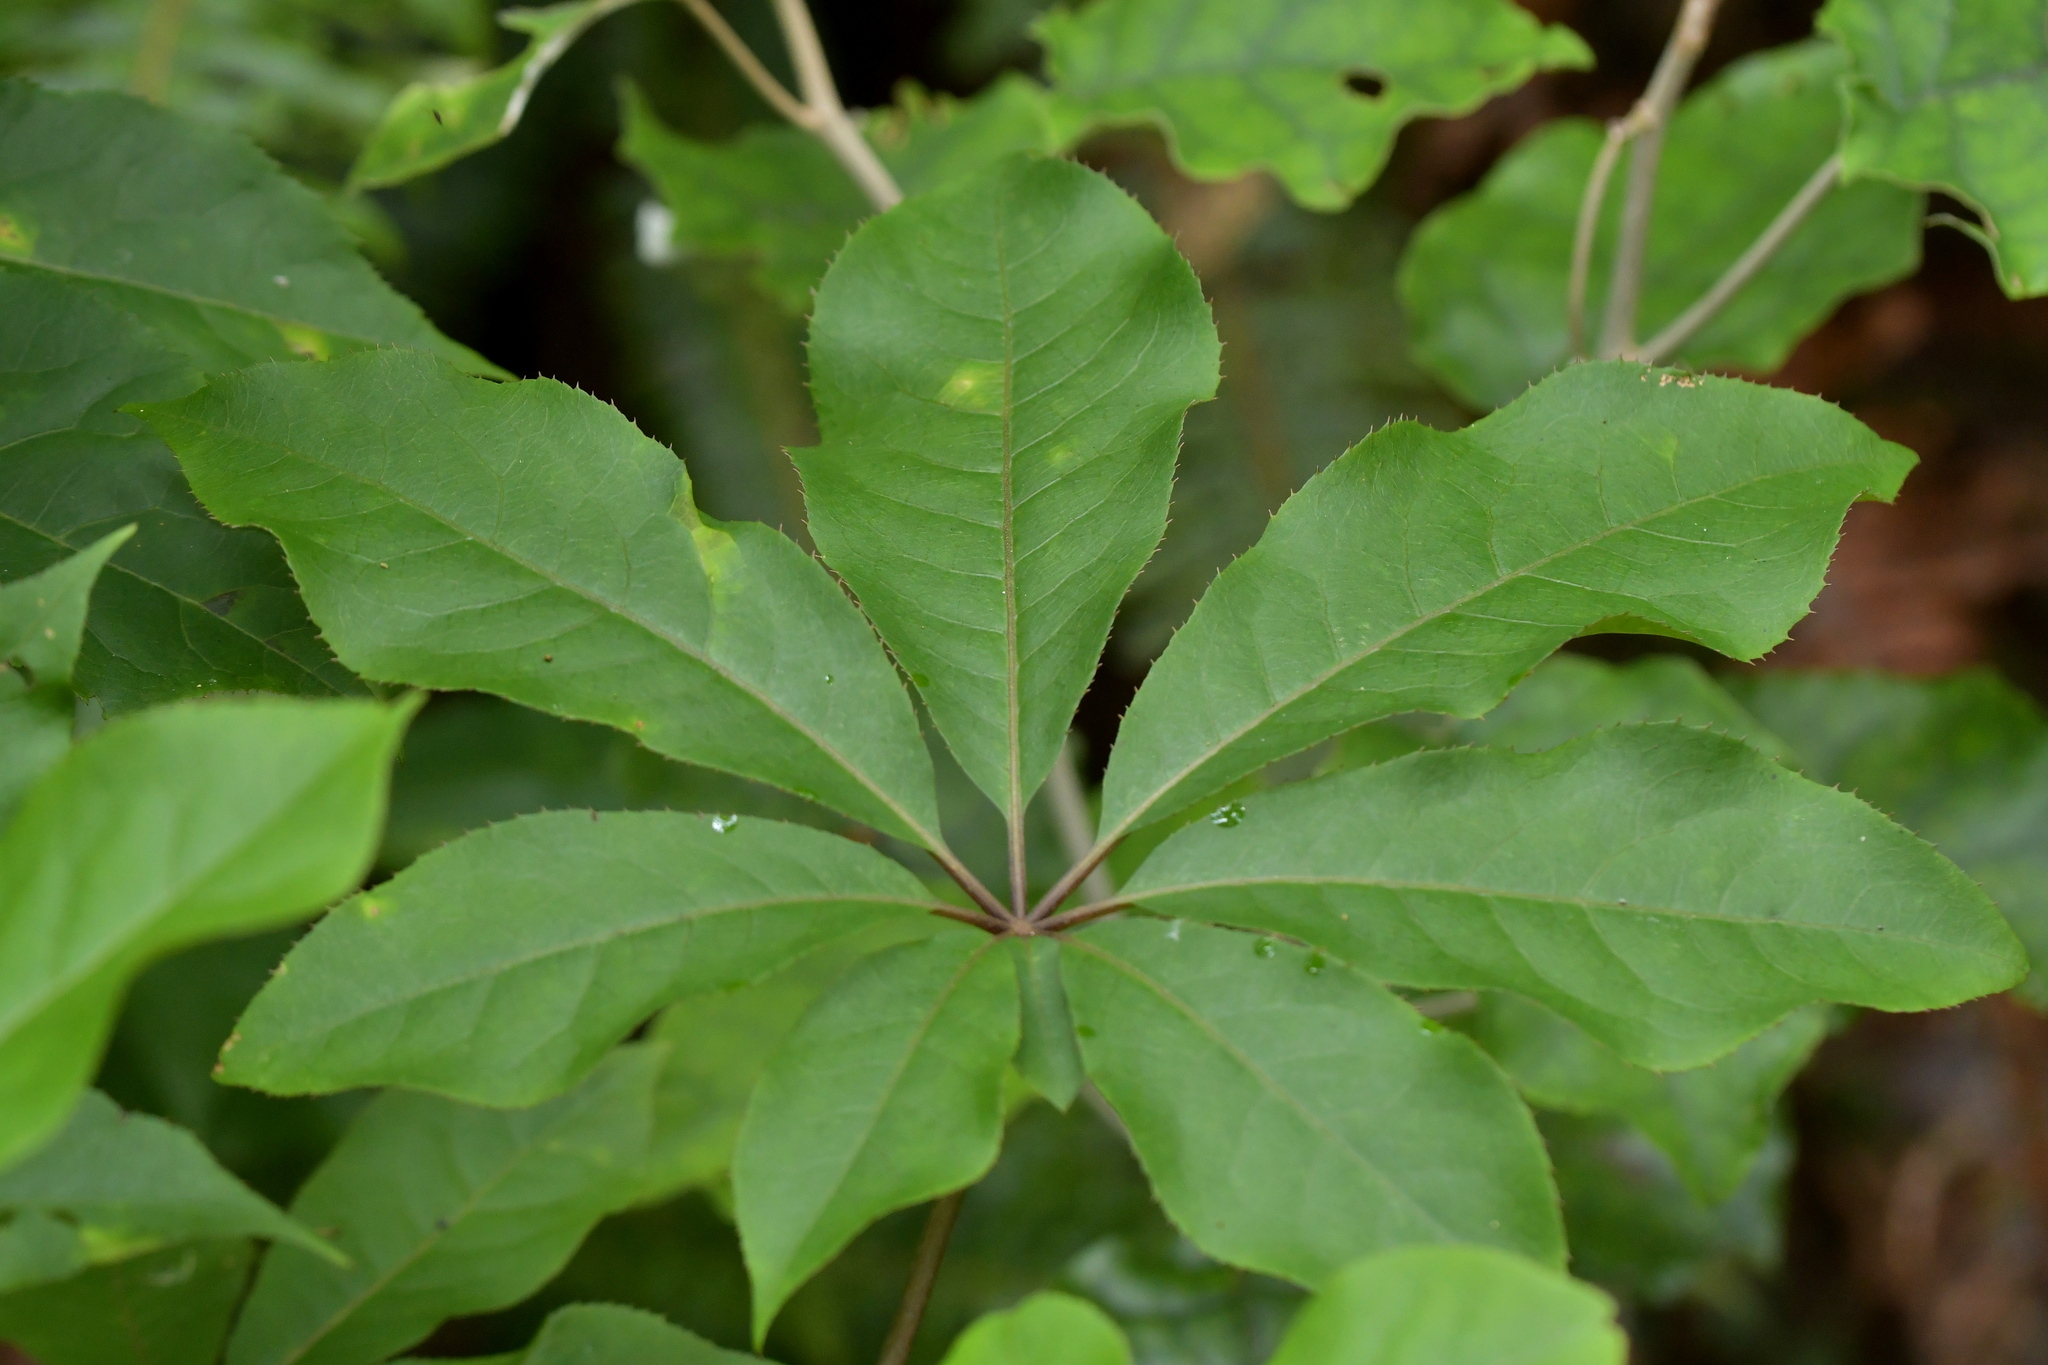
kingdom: Plantae
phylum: Tracheophyta
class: Magnoliopsida
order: Apiales
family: Araliaceae
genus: Schefflera
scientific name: Schefflera digitata
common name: Pate
